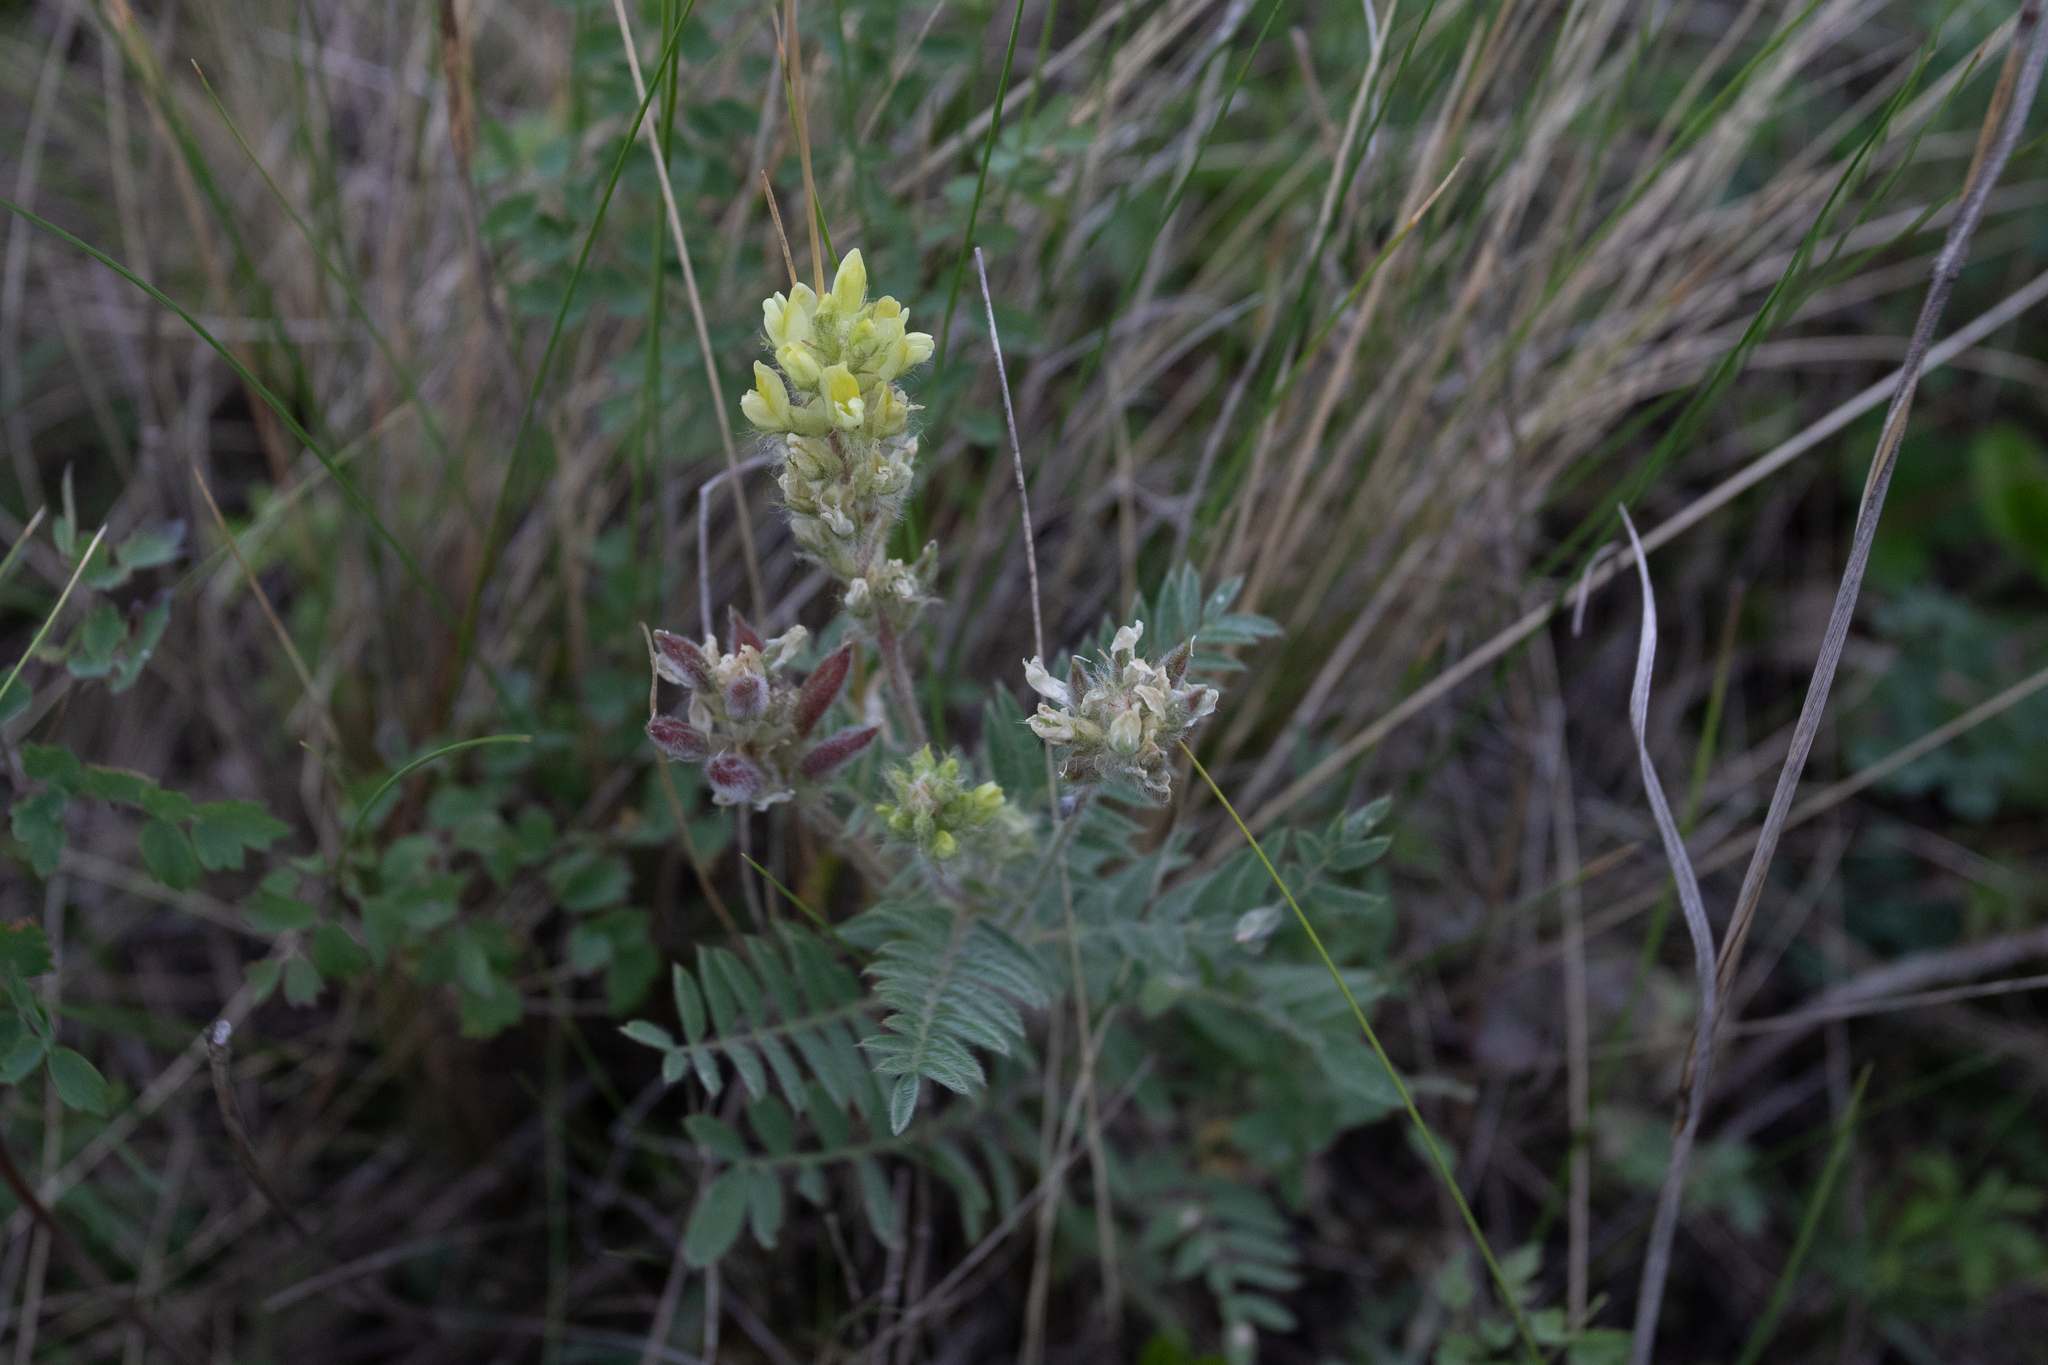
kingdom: Plantae
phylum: Tracheophyta
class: Magnoliopsida
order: Fabales
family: Fabaceae
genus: Oxytropis
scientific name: Oxytropis pilosa
